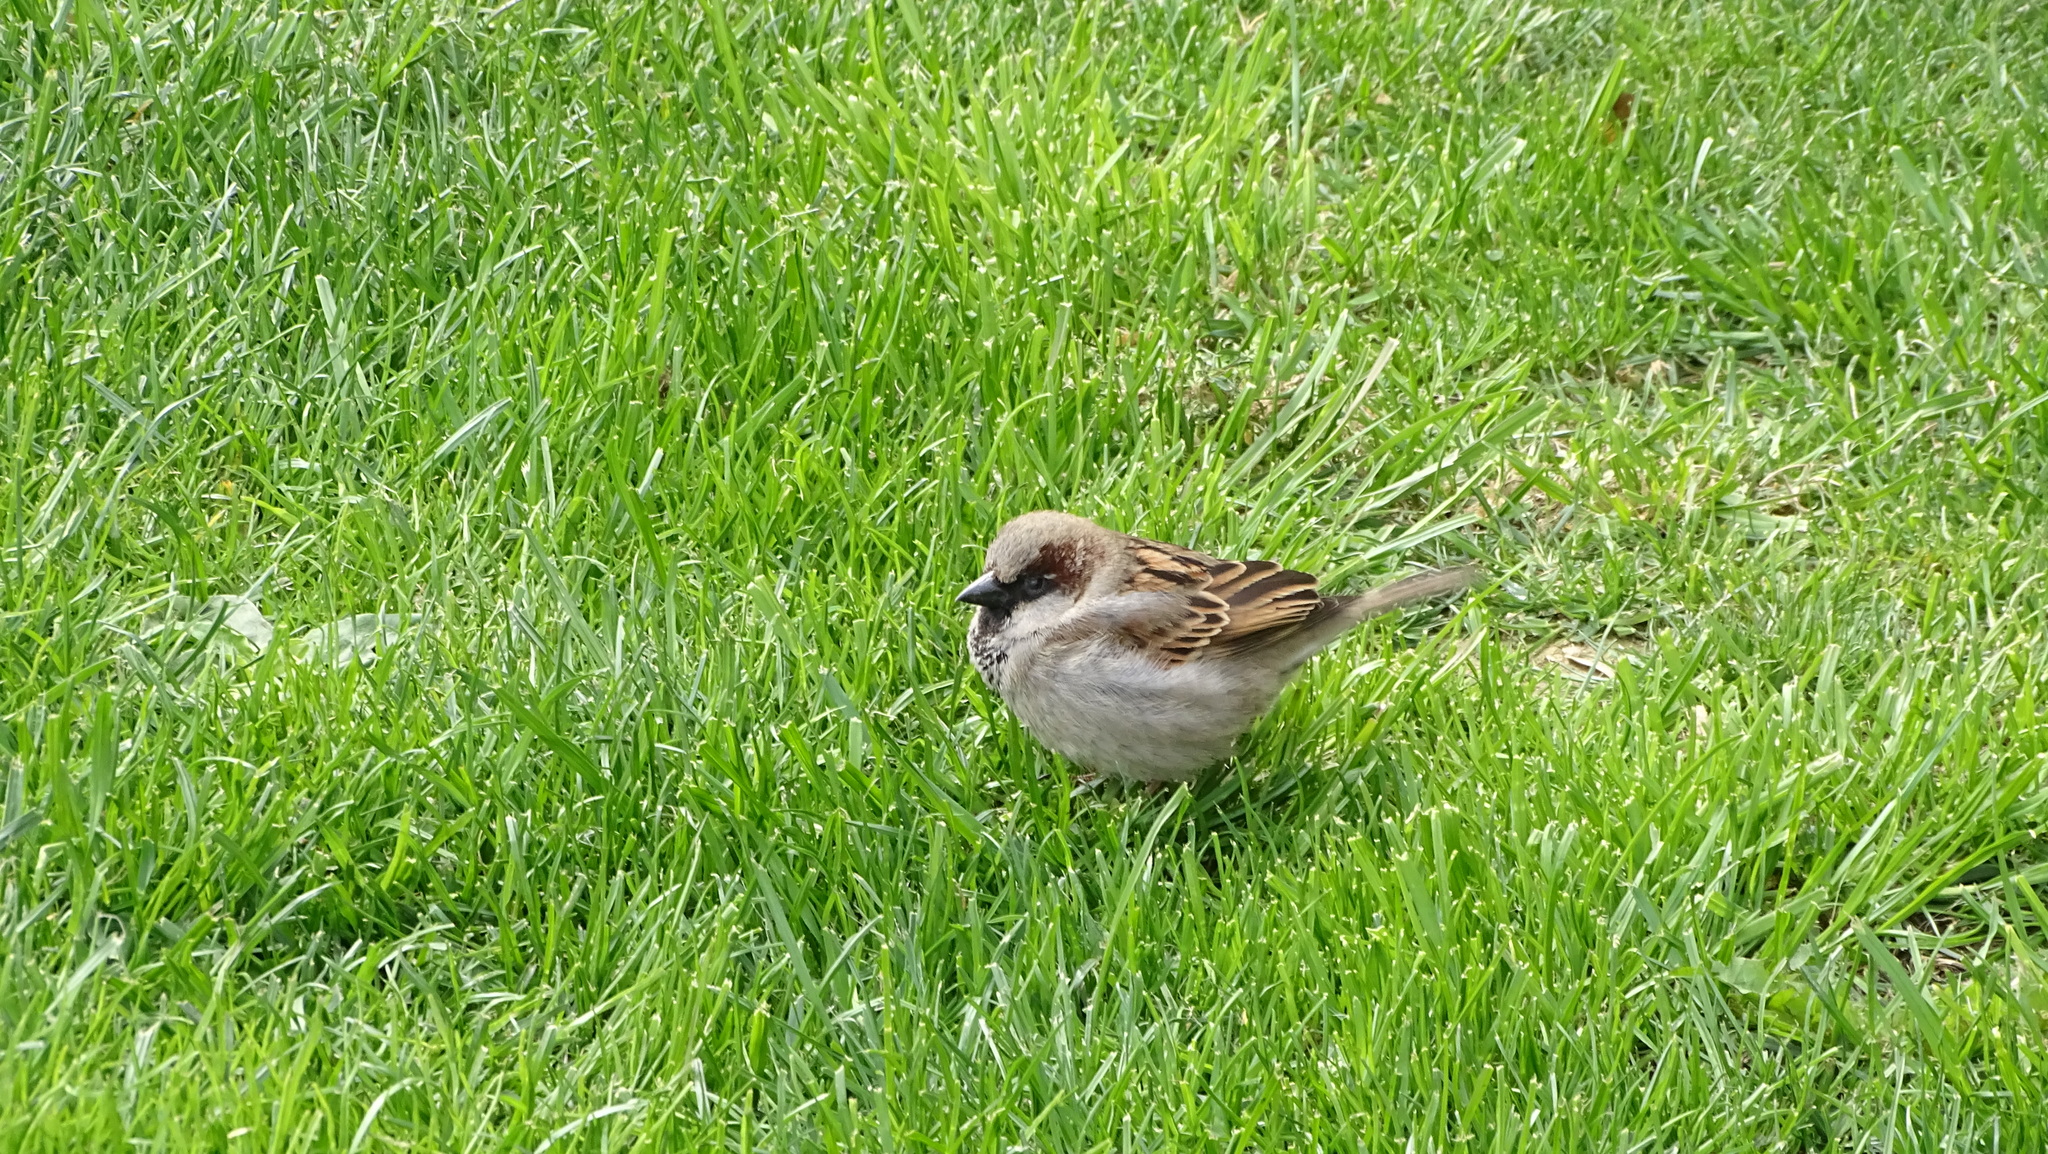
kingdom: Animalia
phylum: Chordata
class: Aves
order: Passeriformes
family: Passeridae
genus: Passer
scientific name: Passer domesticus
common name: House sparrow
